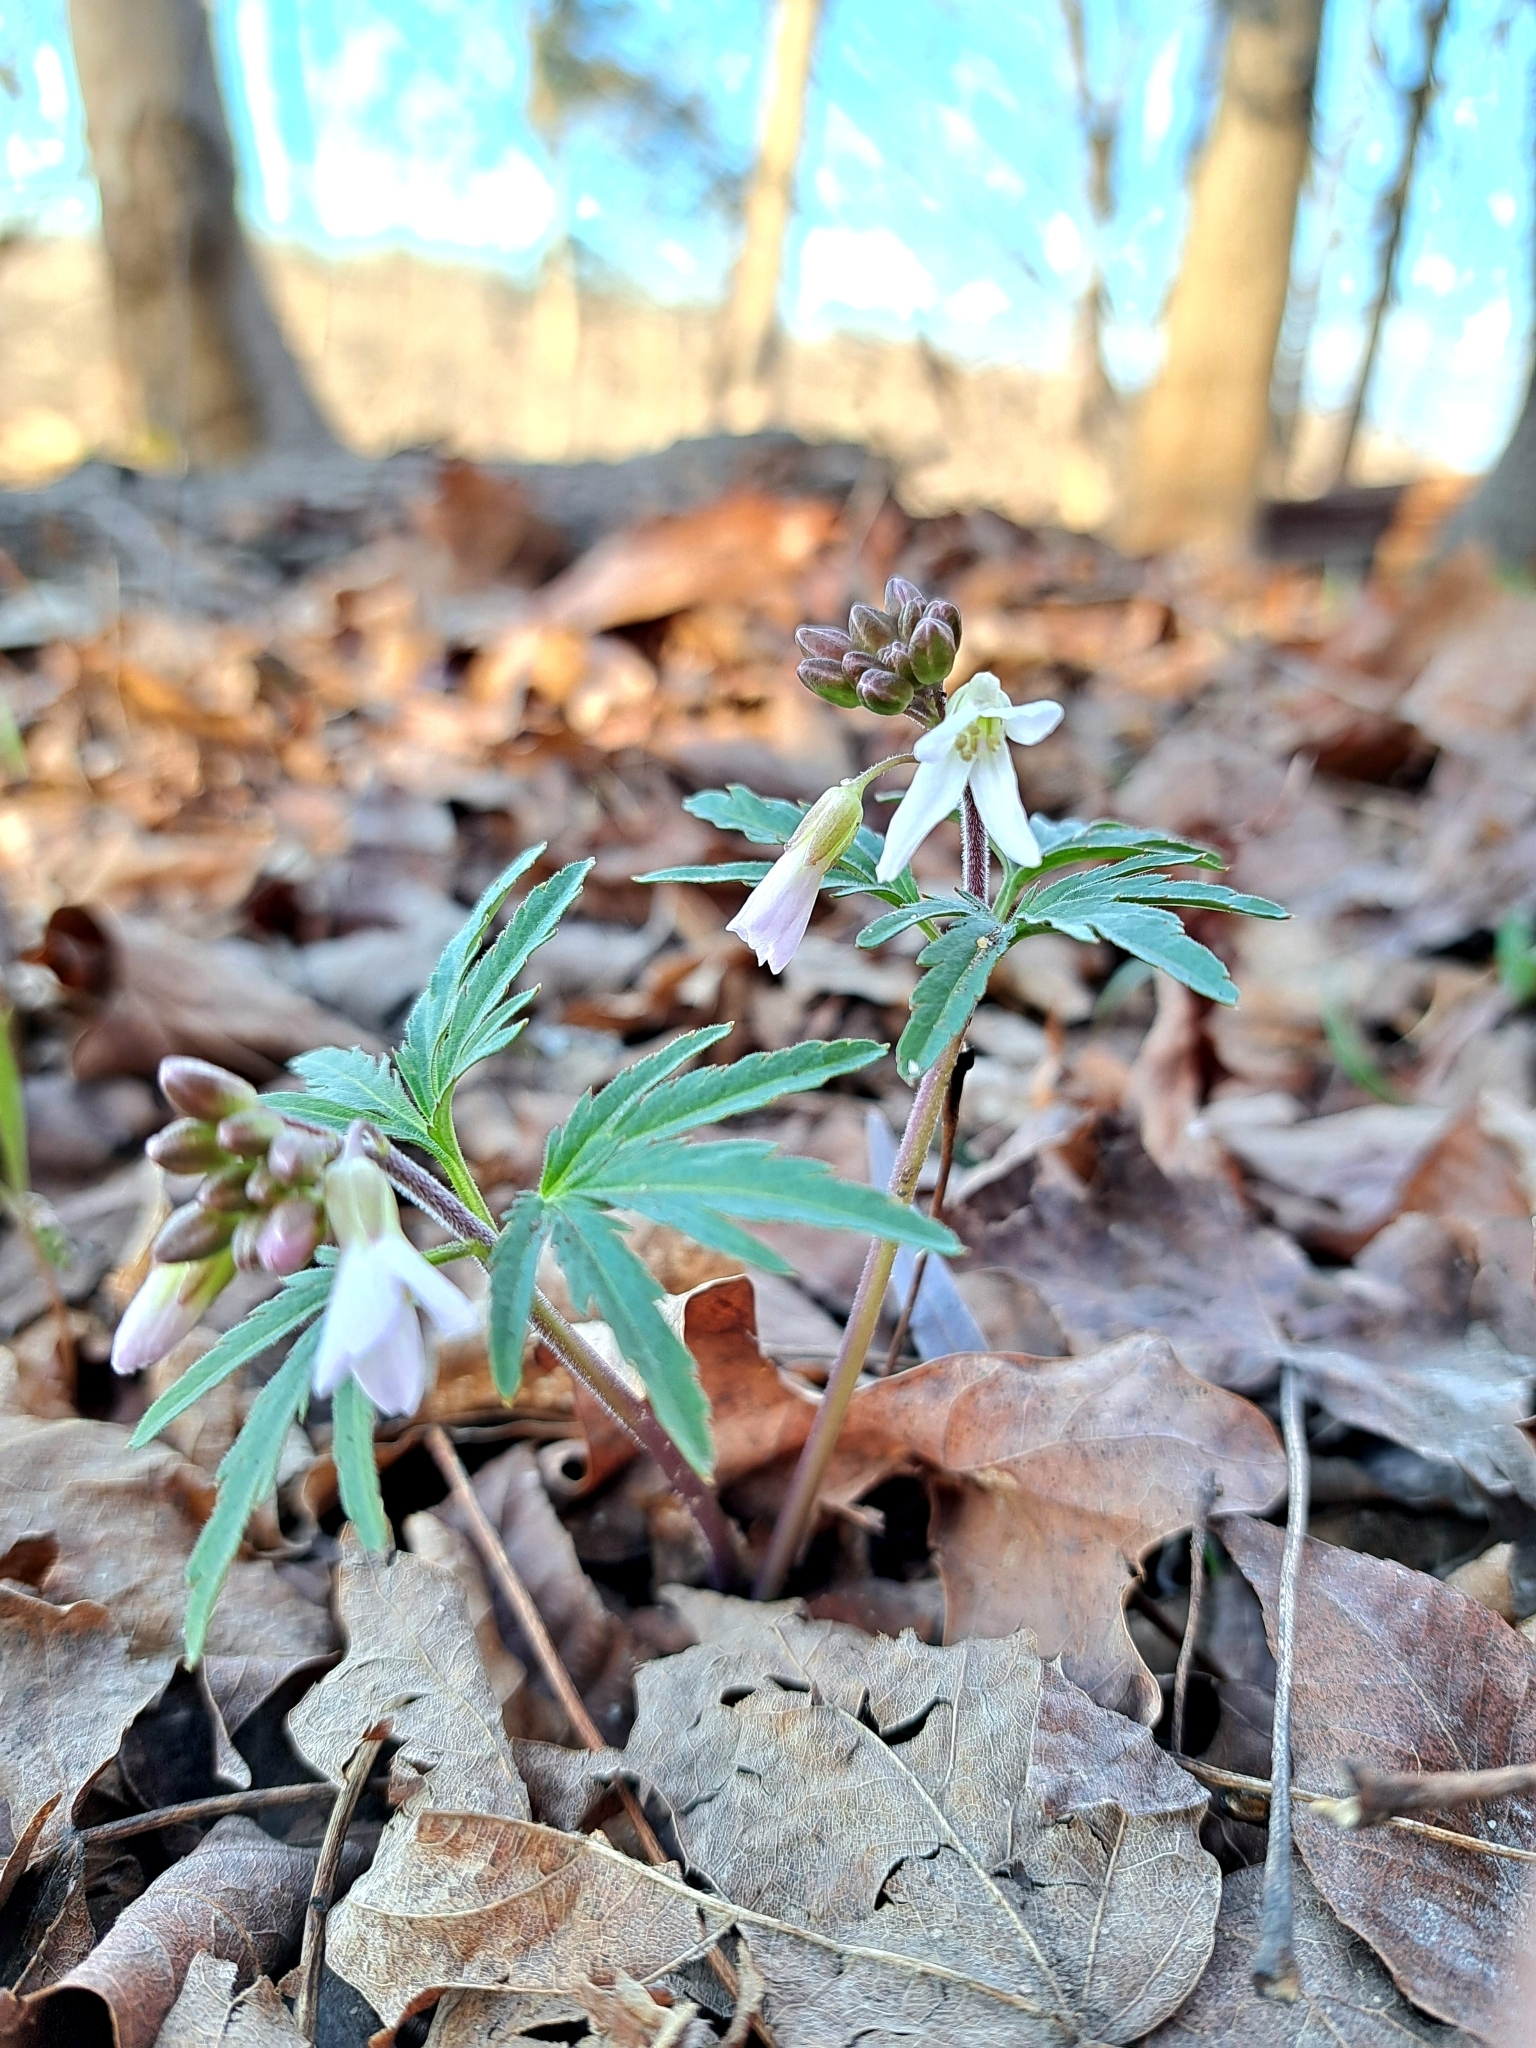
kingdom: Plantae
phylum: Tracheophyta
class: Magnoliopsida
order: Brassicales
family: Brassicaceae
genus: Cardamine
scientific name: Cardamine concatenata
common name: Cut-leaf toothcup
